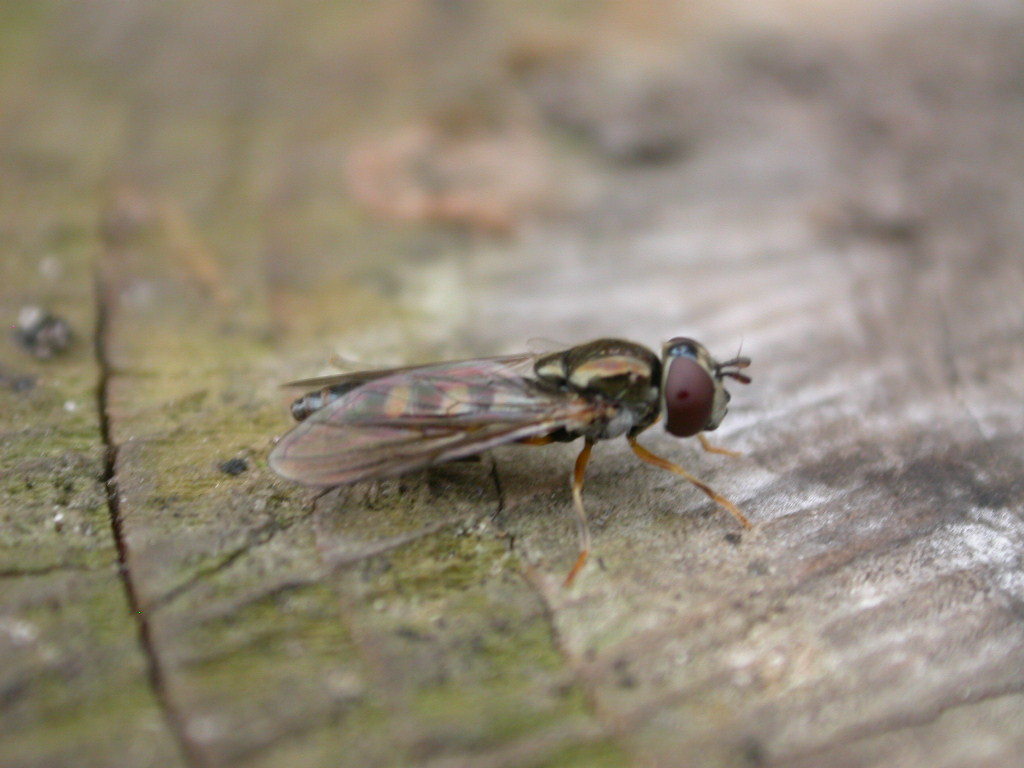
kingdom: Animalia
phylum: Arthropoda
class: Insecta
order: Diptera
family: Syrphidae
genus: Platycheirus
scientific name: Platycheirus
